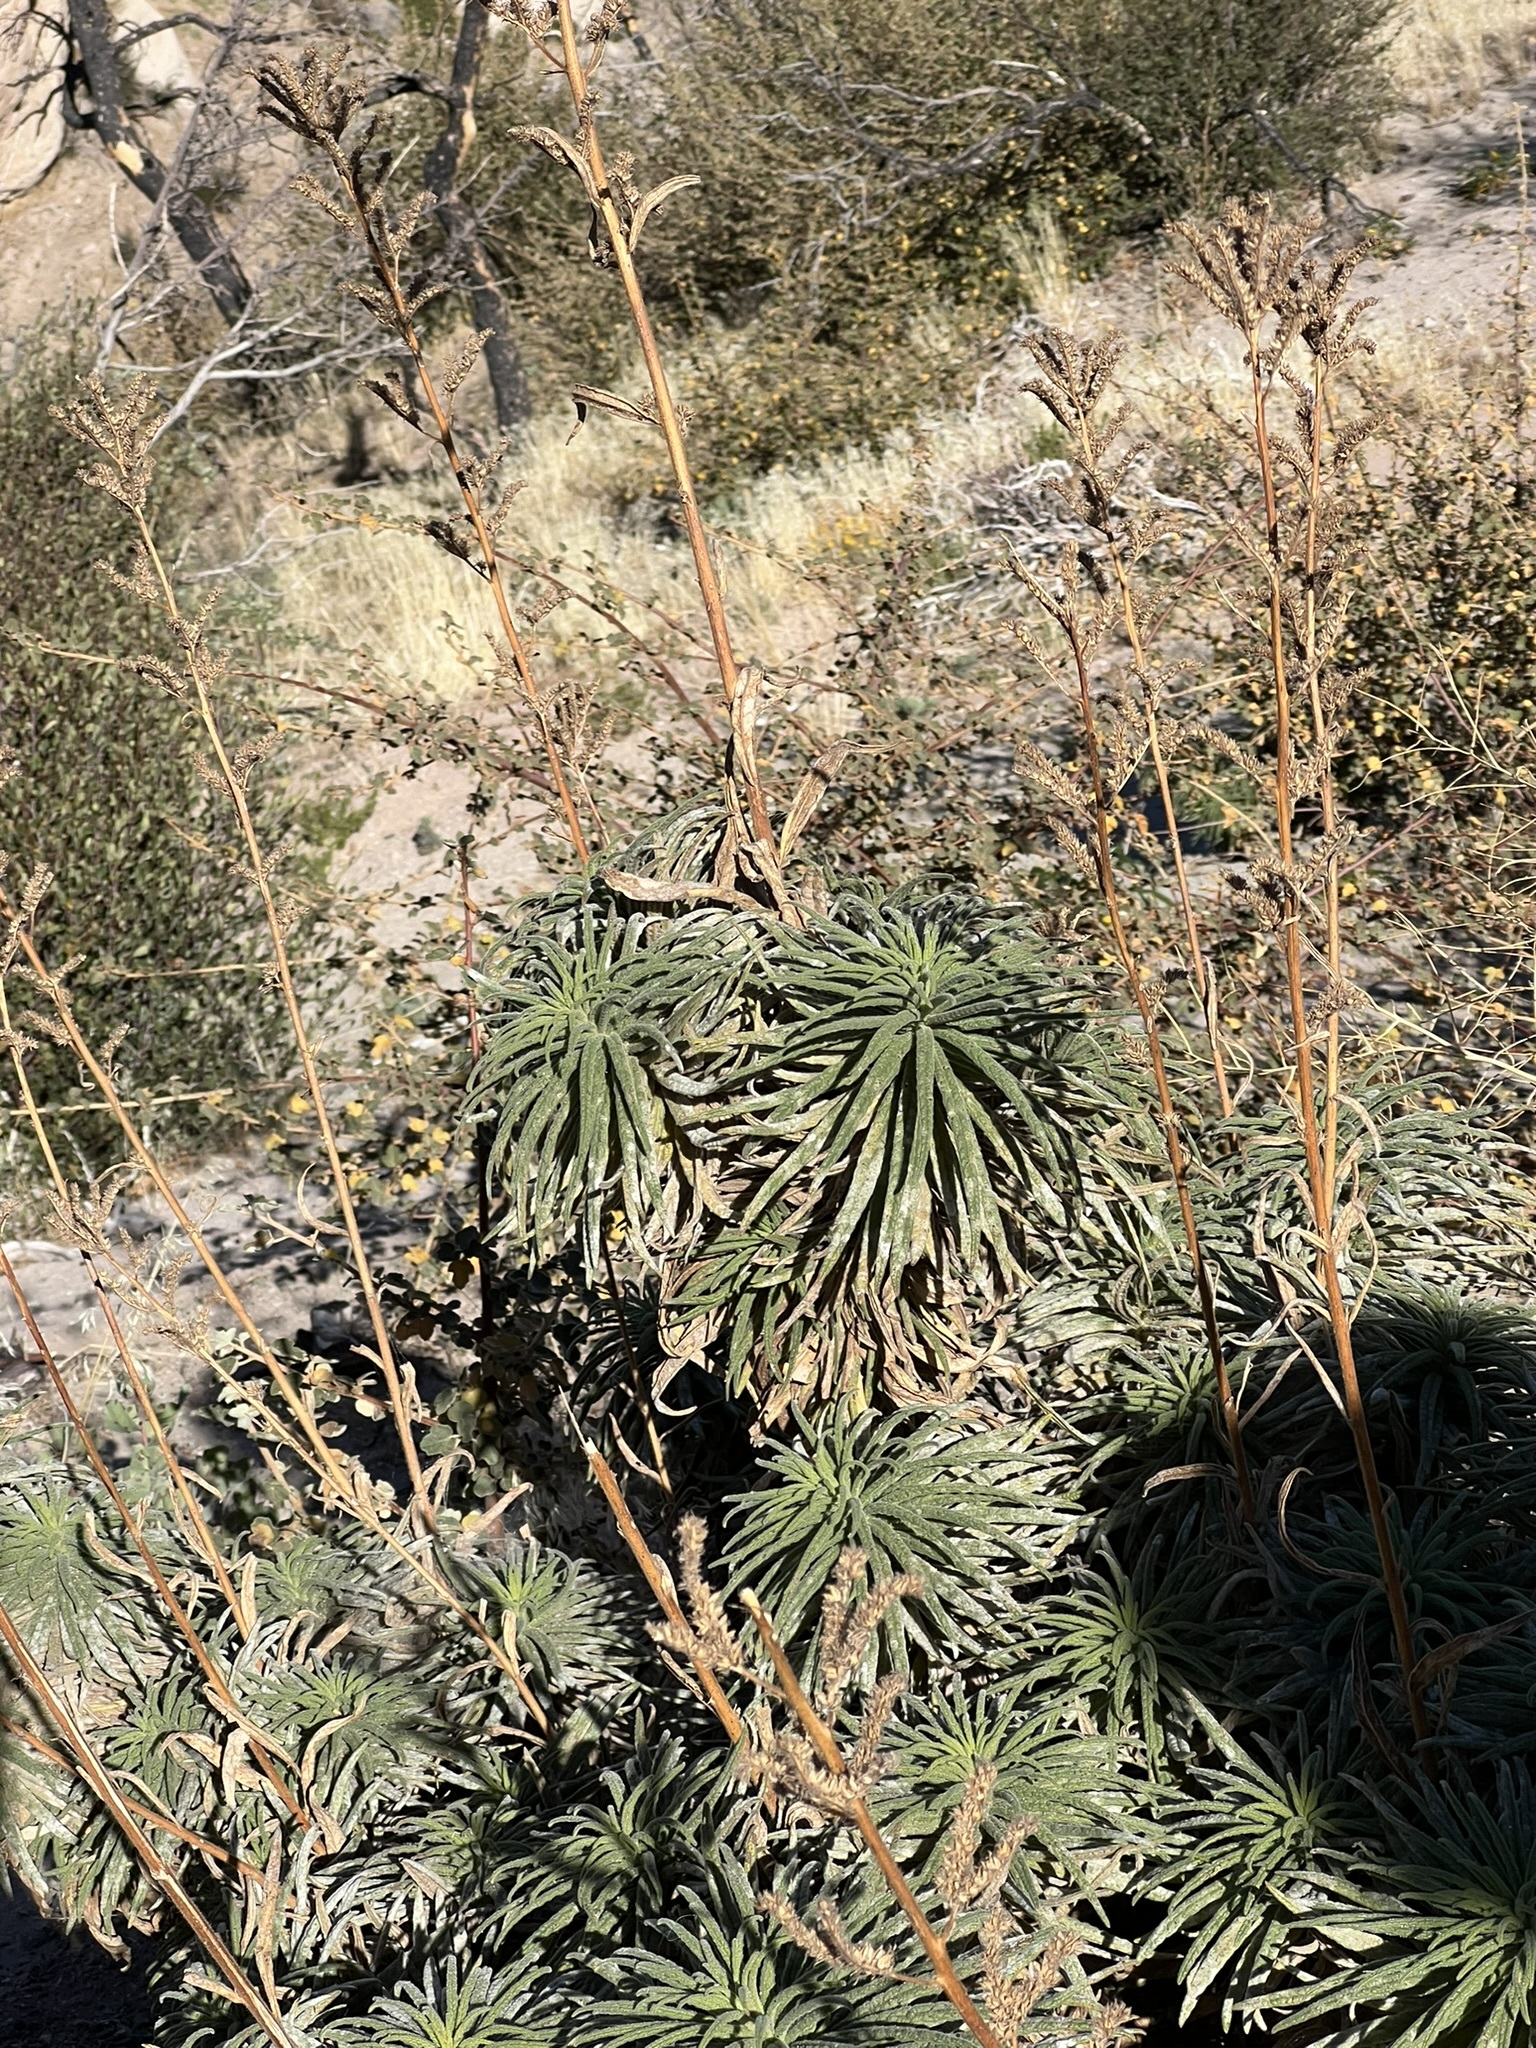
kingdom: Plantae
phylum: Tracheophyta
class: Magnoliopsida
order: Boraginales
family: Namaceae
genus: Turricula
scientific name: Turricula parryi
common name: Poodle-dog-bush
